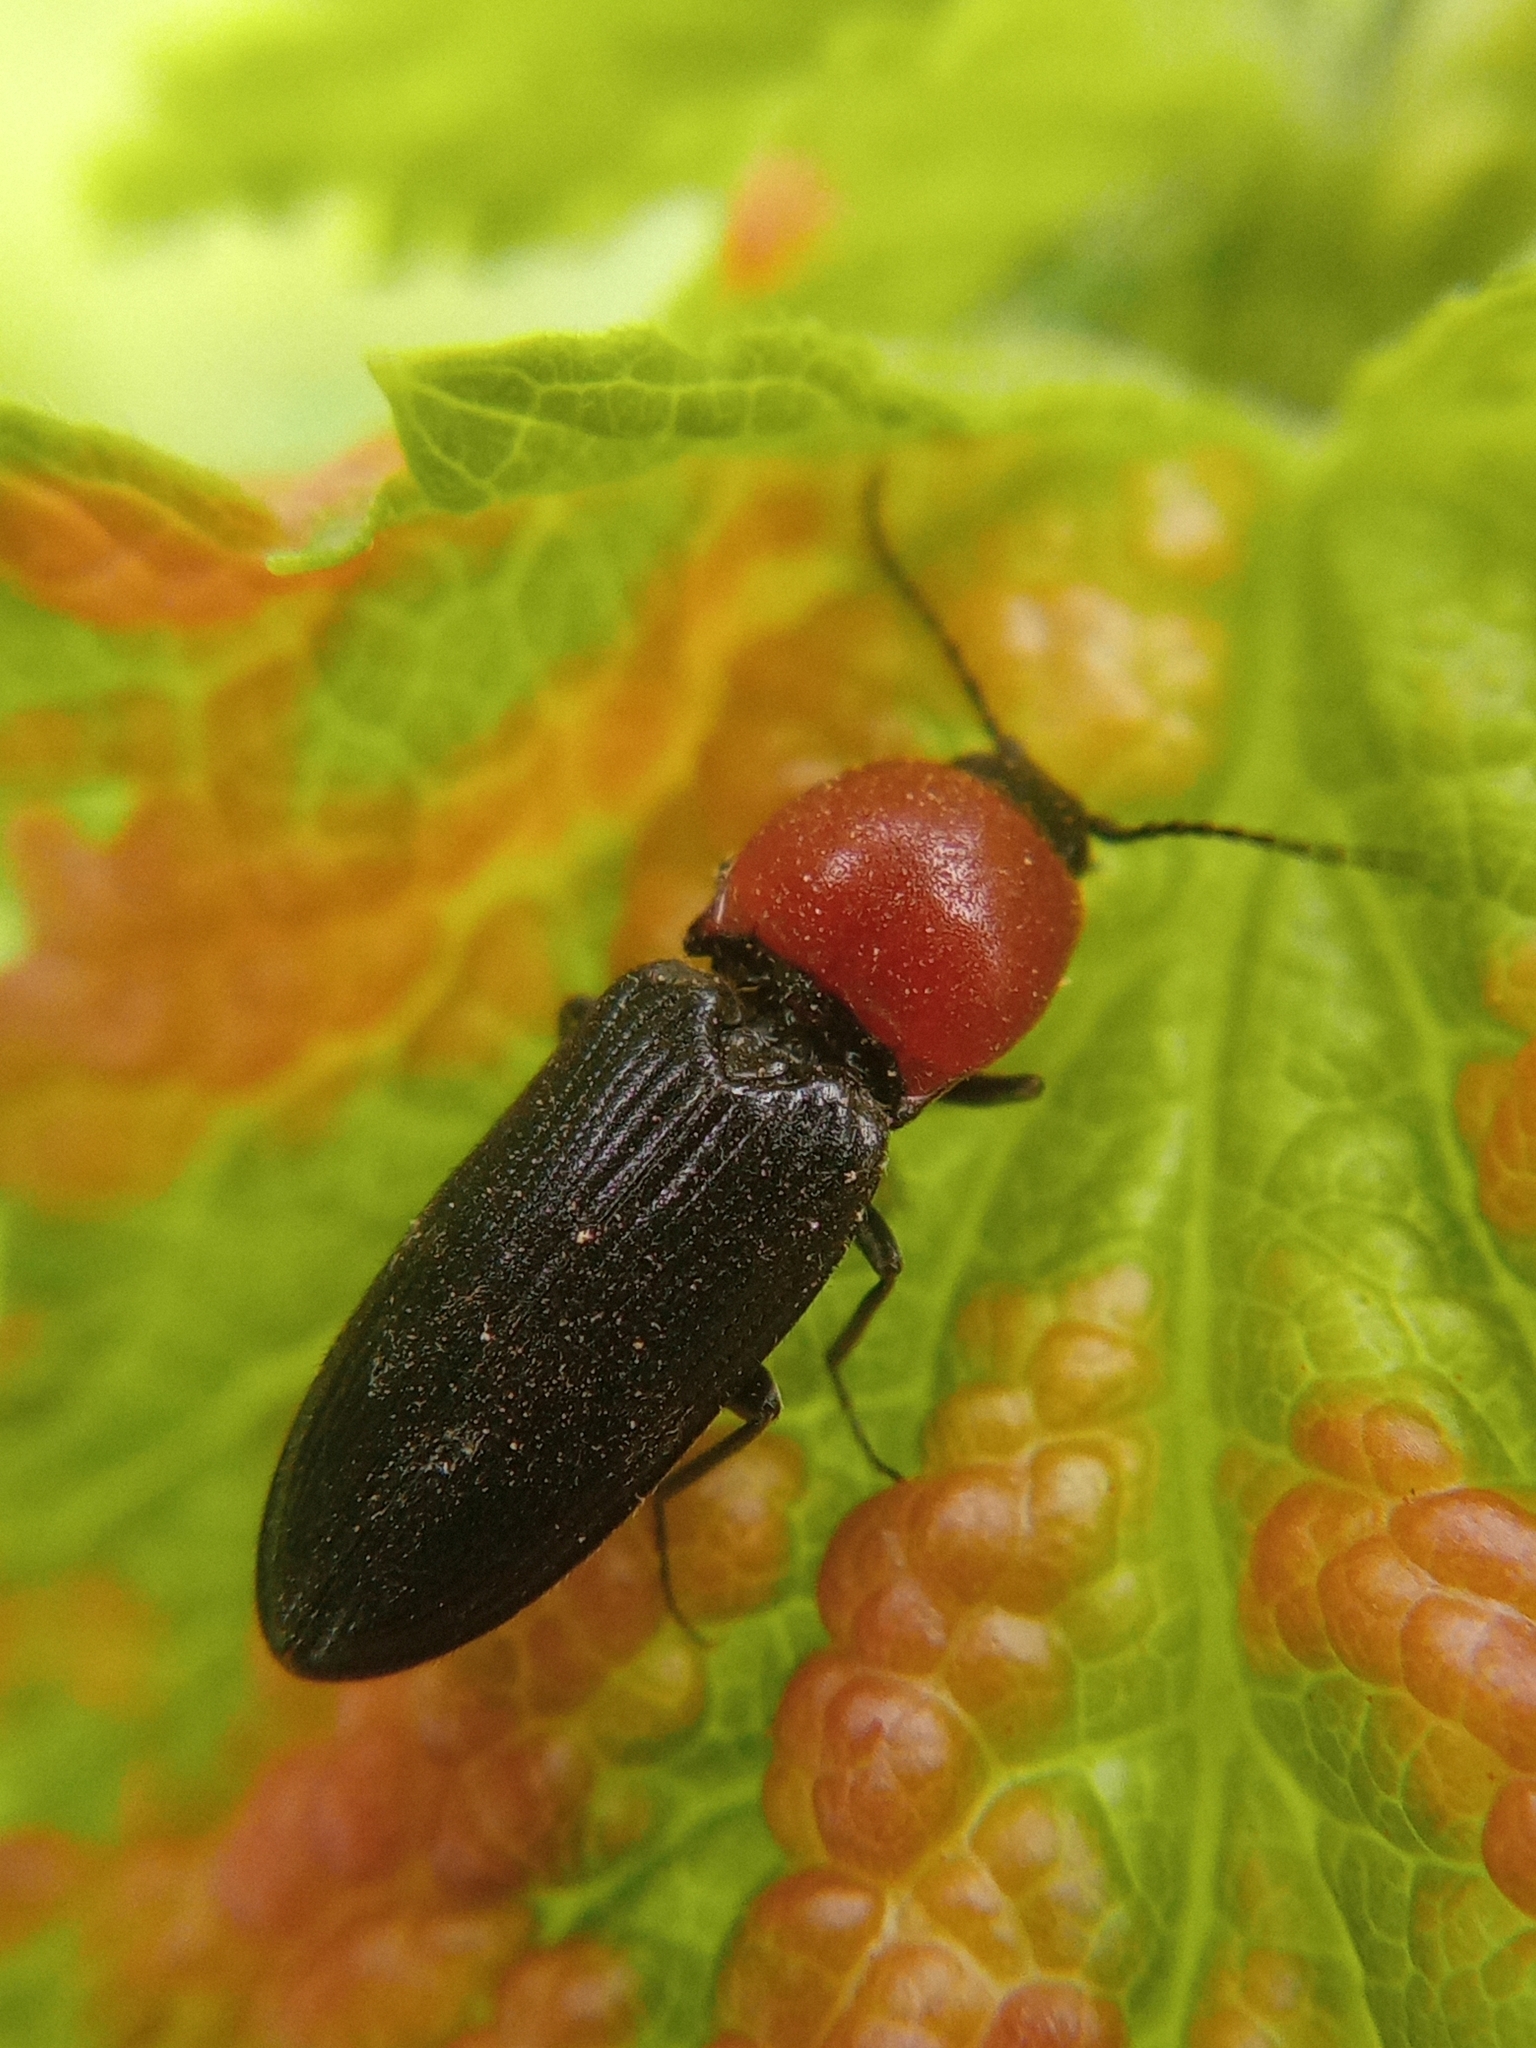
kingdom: Animalia
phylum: Arthropoda
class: Insecta
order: Coleoptera
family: Elateridae
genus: Cardiophorus
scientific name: Cardiophorus gramineus
